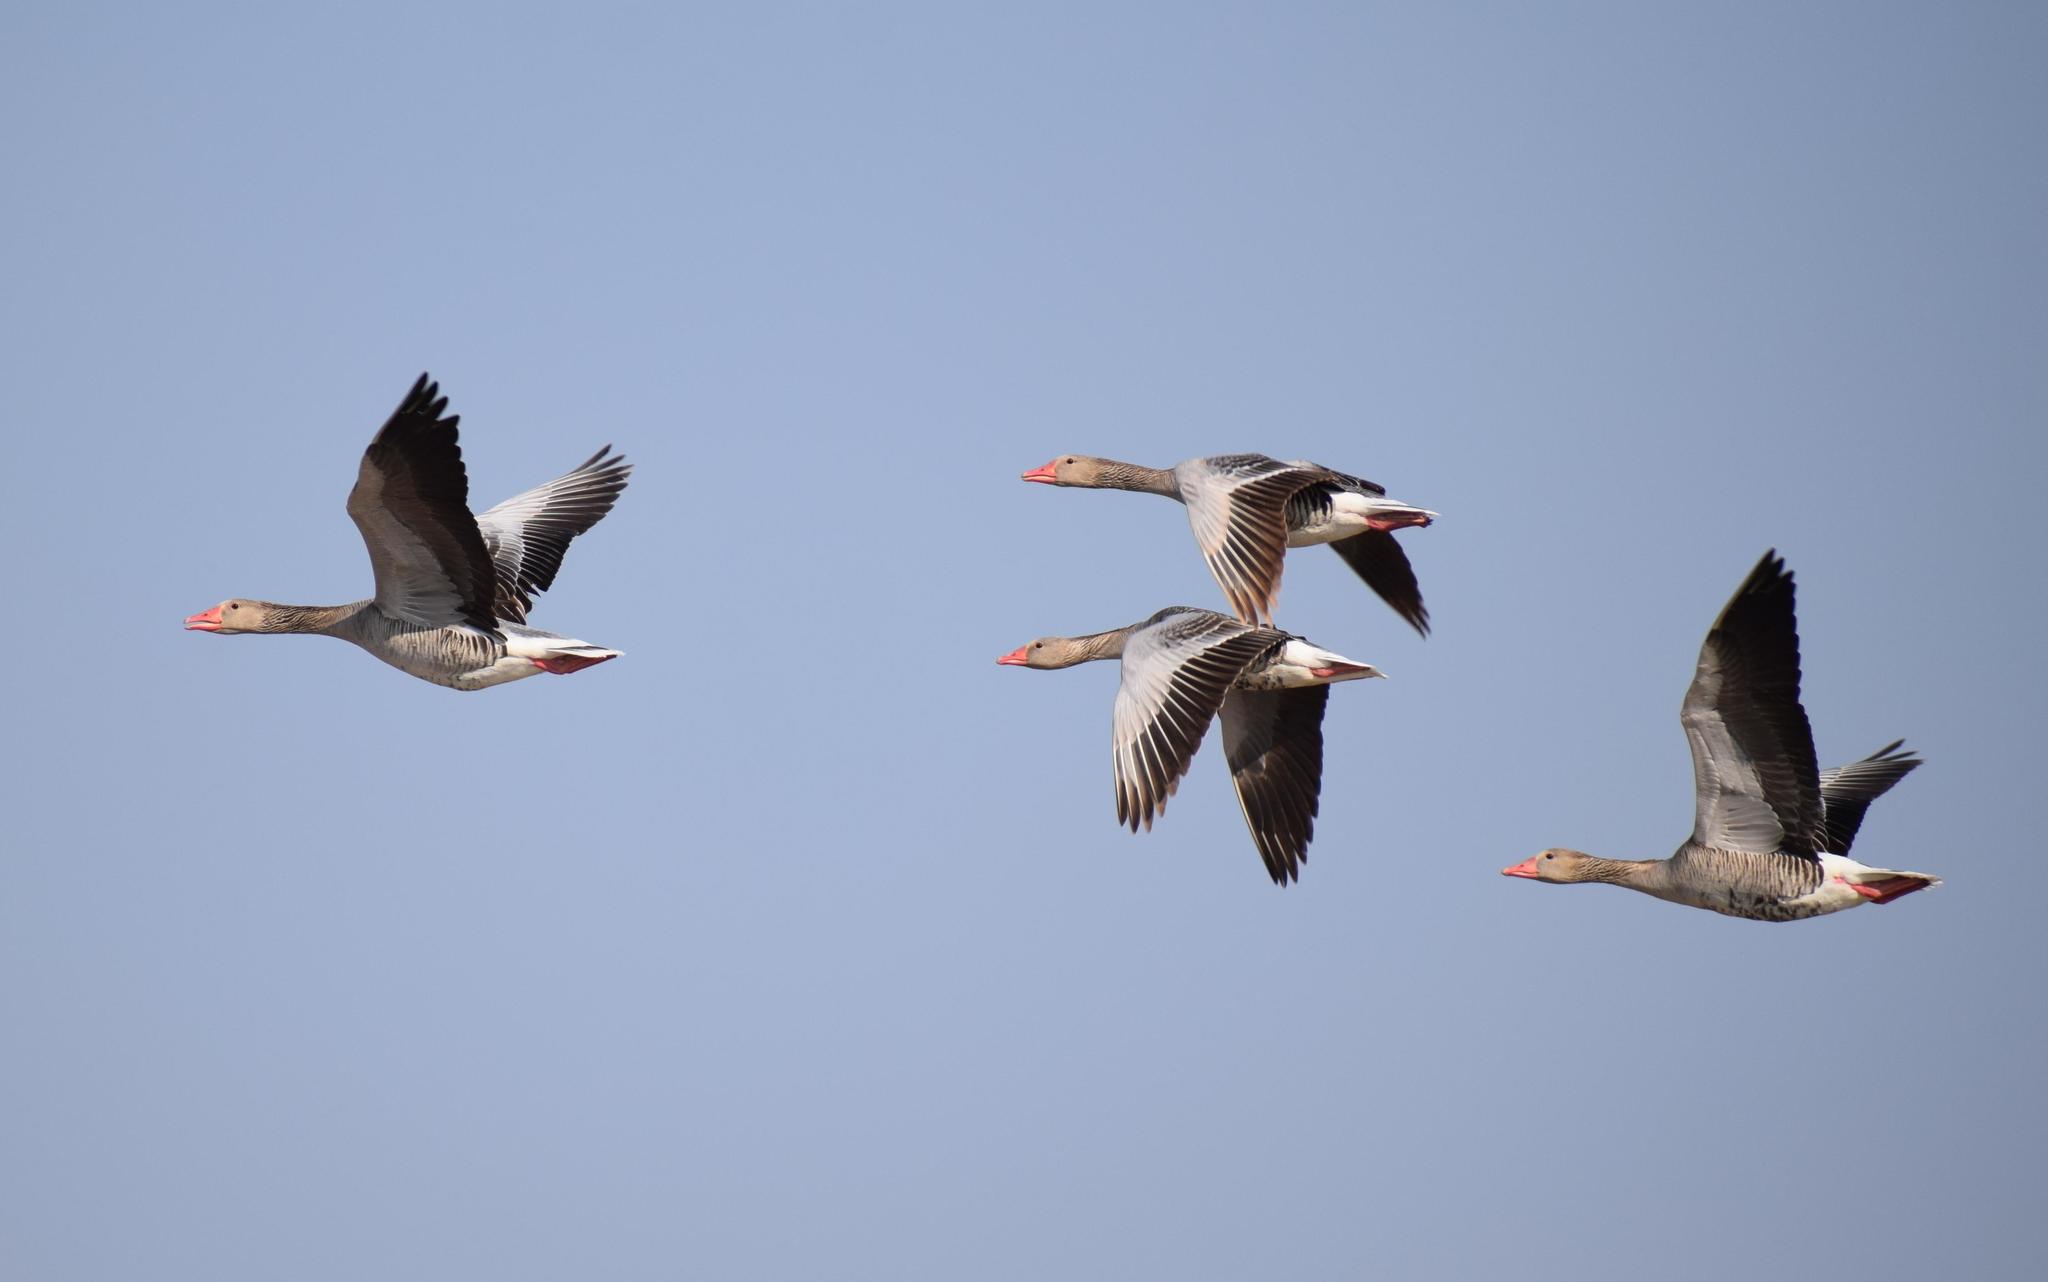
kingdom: Animalia
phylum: Chordata
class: Aves
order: Anseriformes
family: Anatidae
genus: Anser
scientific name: Anser anser
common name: Greylag goose
